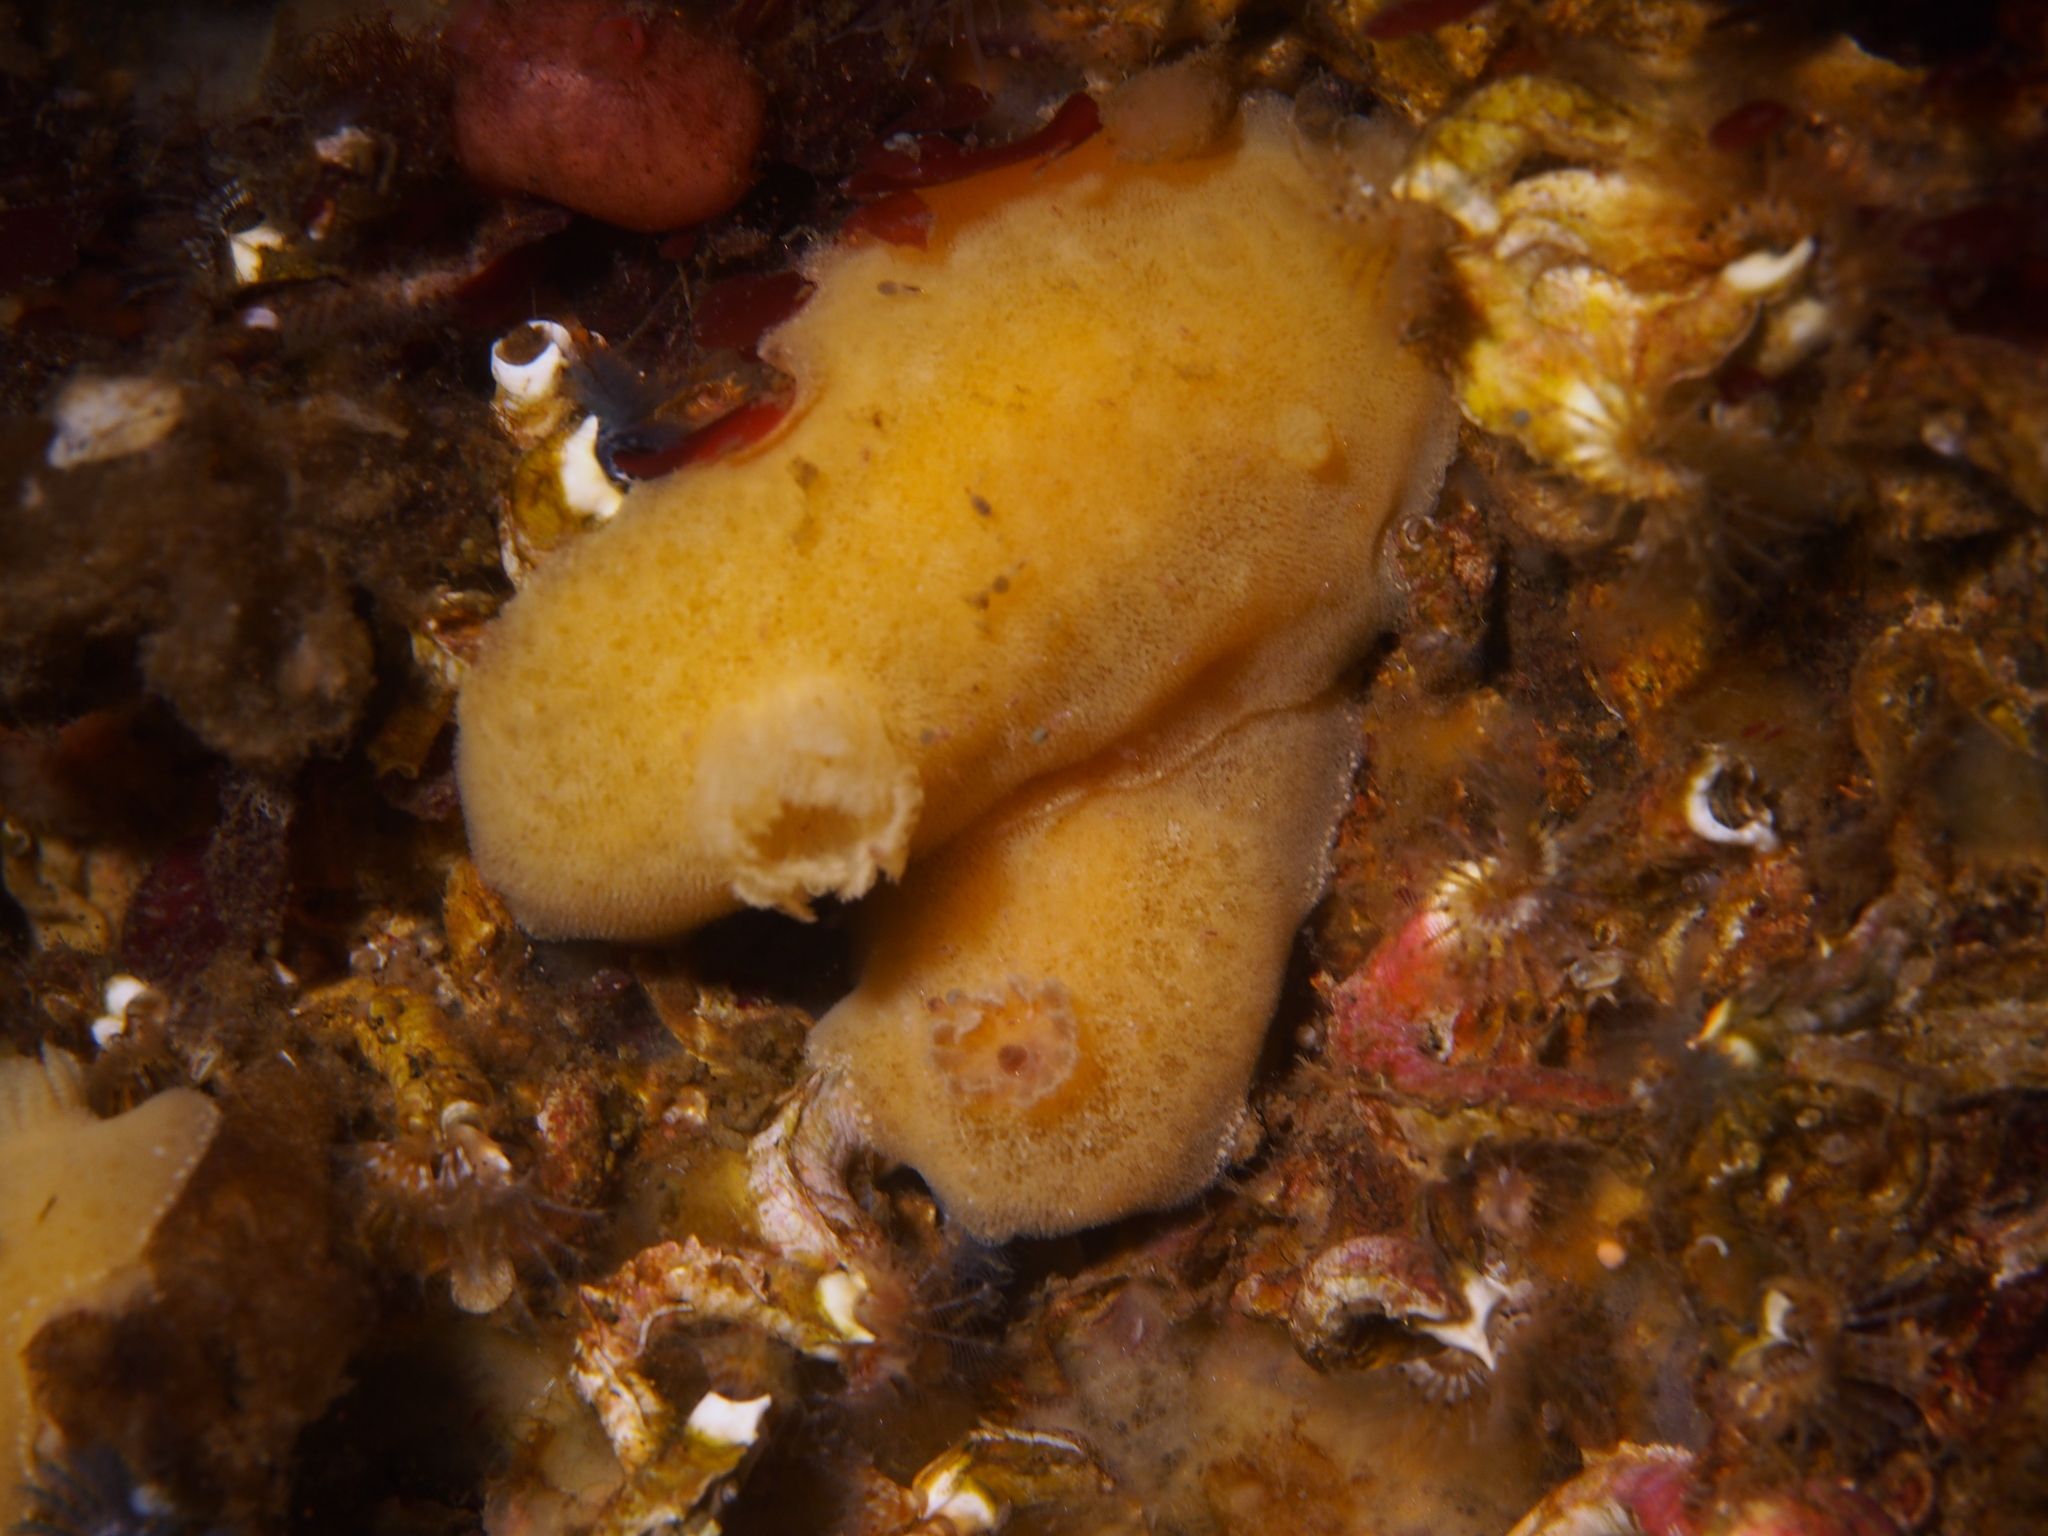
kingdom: Animalia
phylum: Mollusca
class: Gastropoda
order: Nudibranchia
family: Discodorididae
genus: Jorunna
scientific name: Jorunna tomentosa
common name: Grey sea slug
